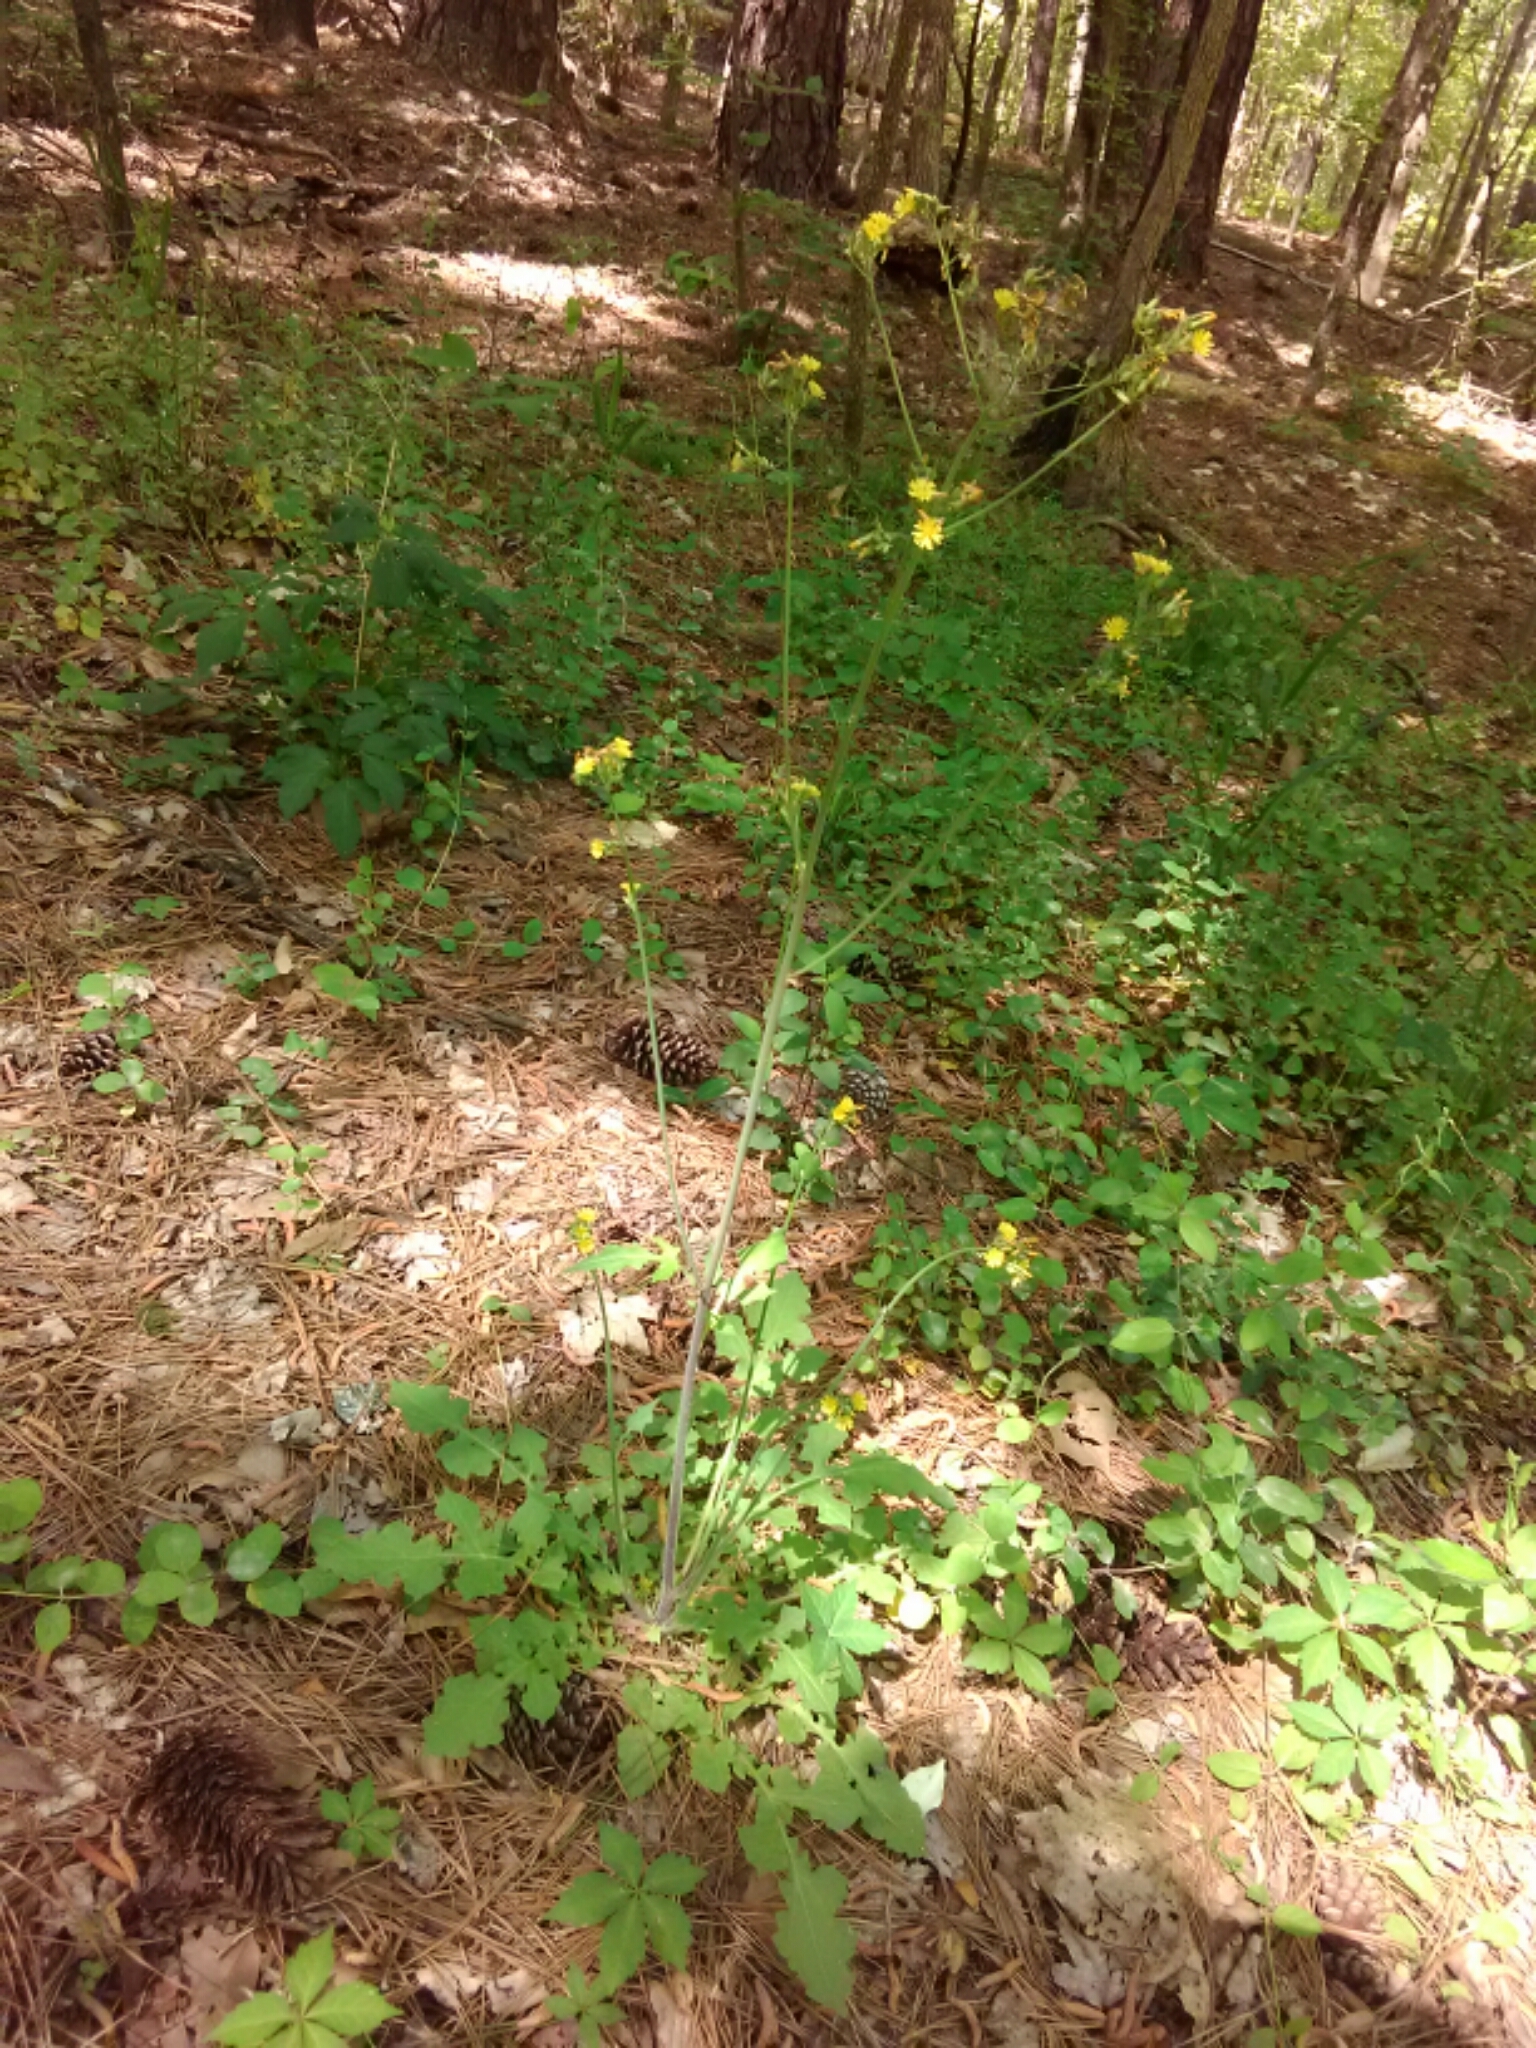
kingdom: Plantae
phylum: Tracheophyta
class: Magnoliopsida
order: Asterales
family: Asteraceae
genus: Youngia
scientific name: Youngia japonica
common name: Oriental false hawksbeard
